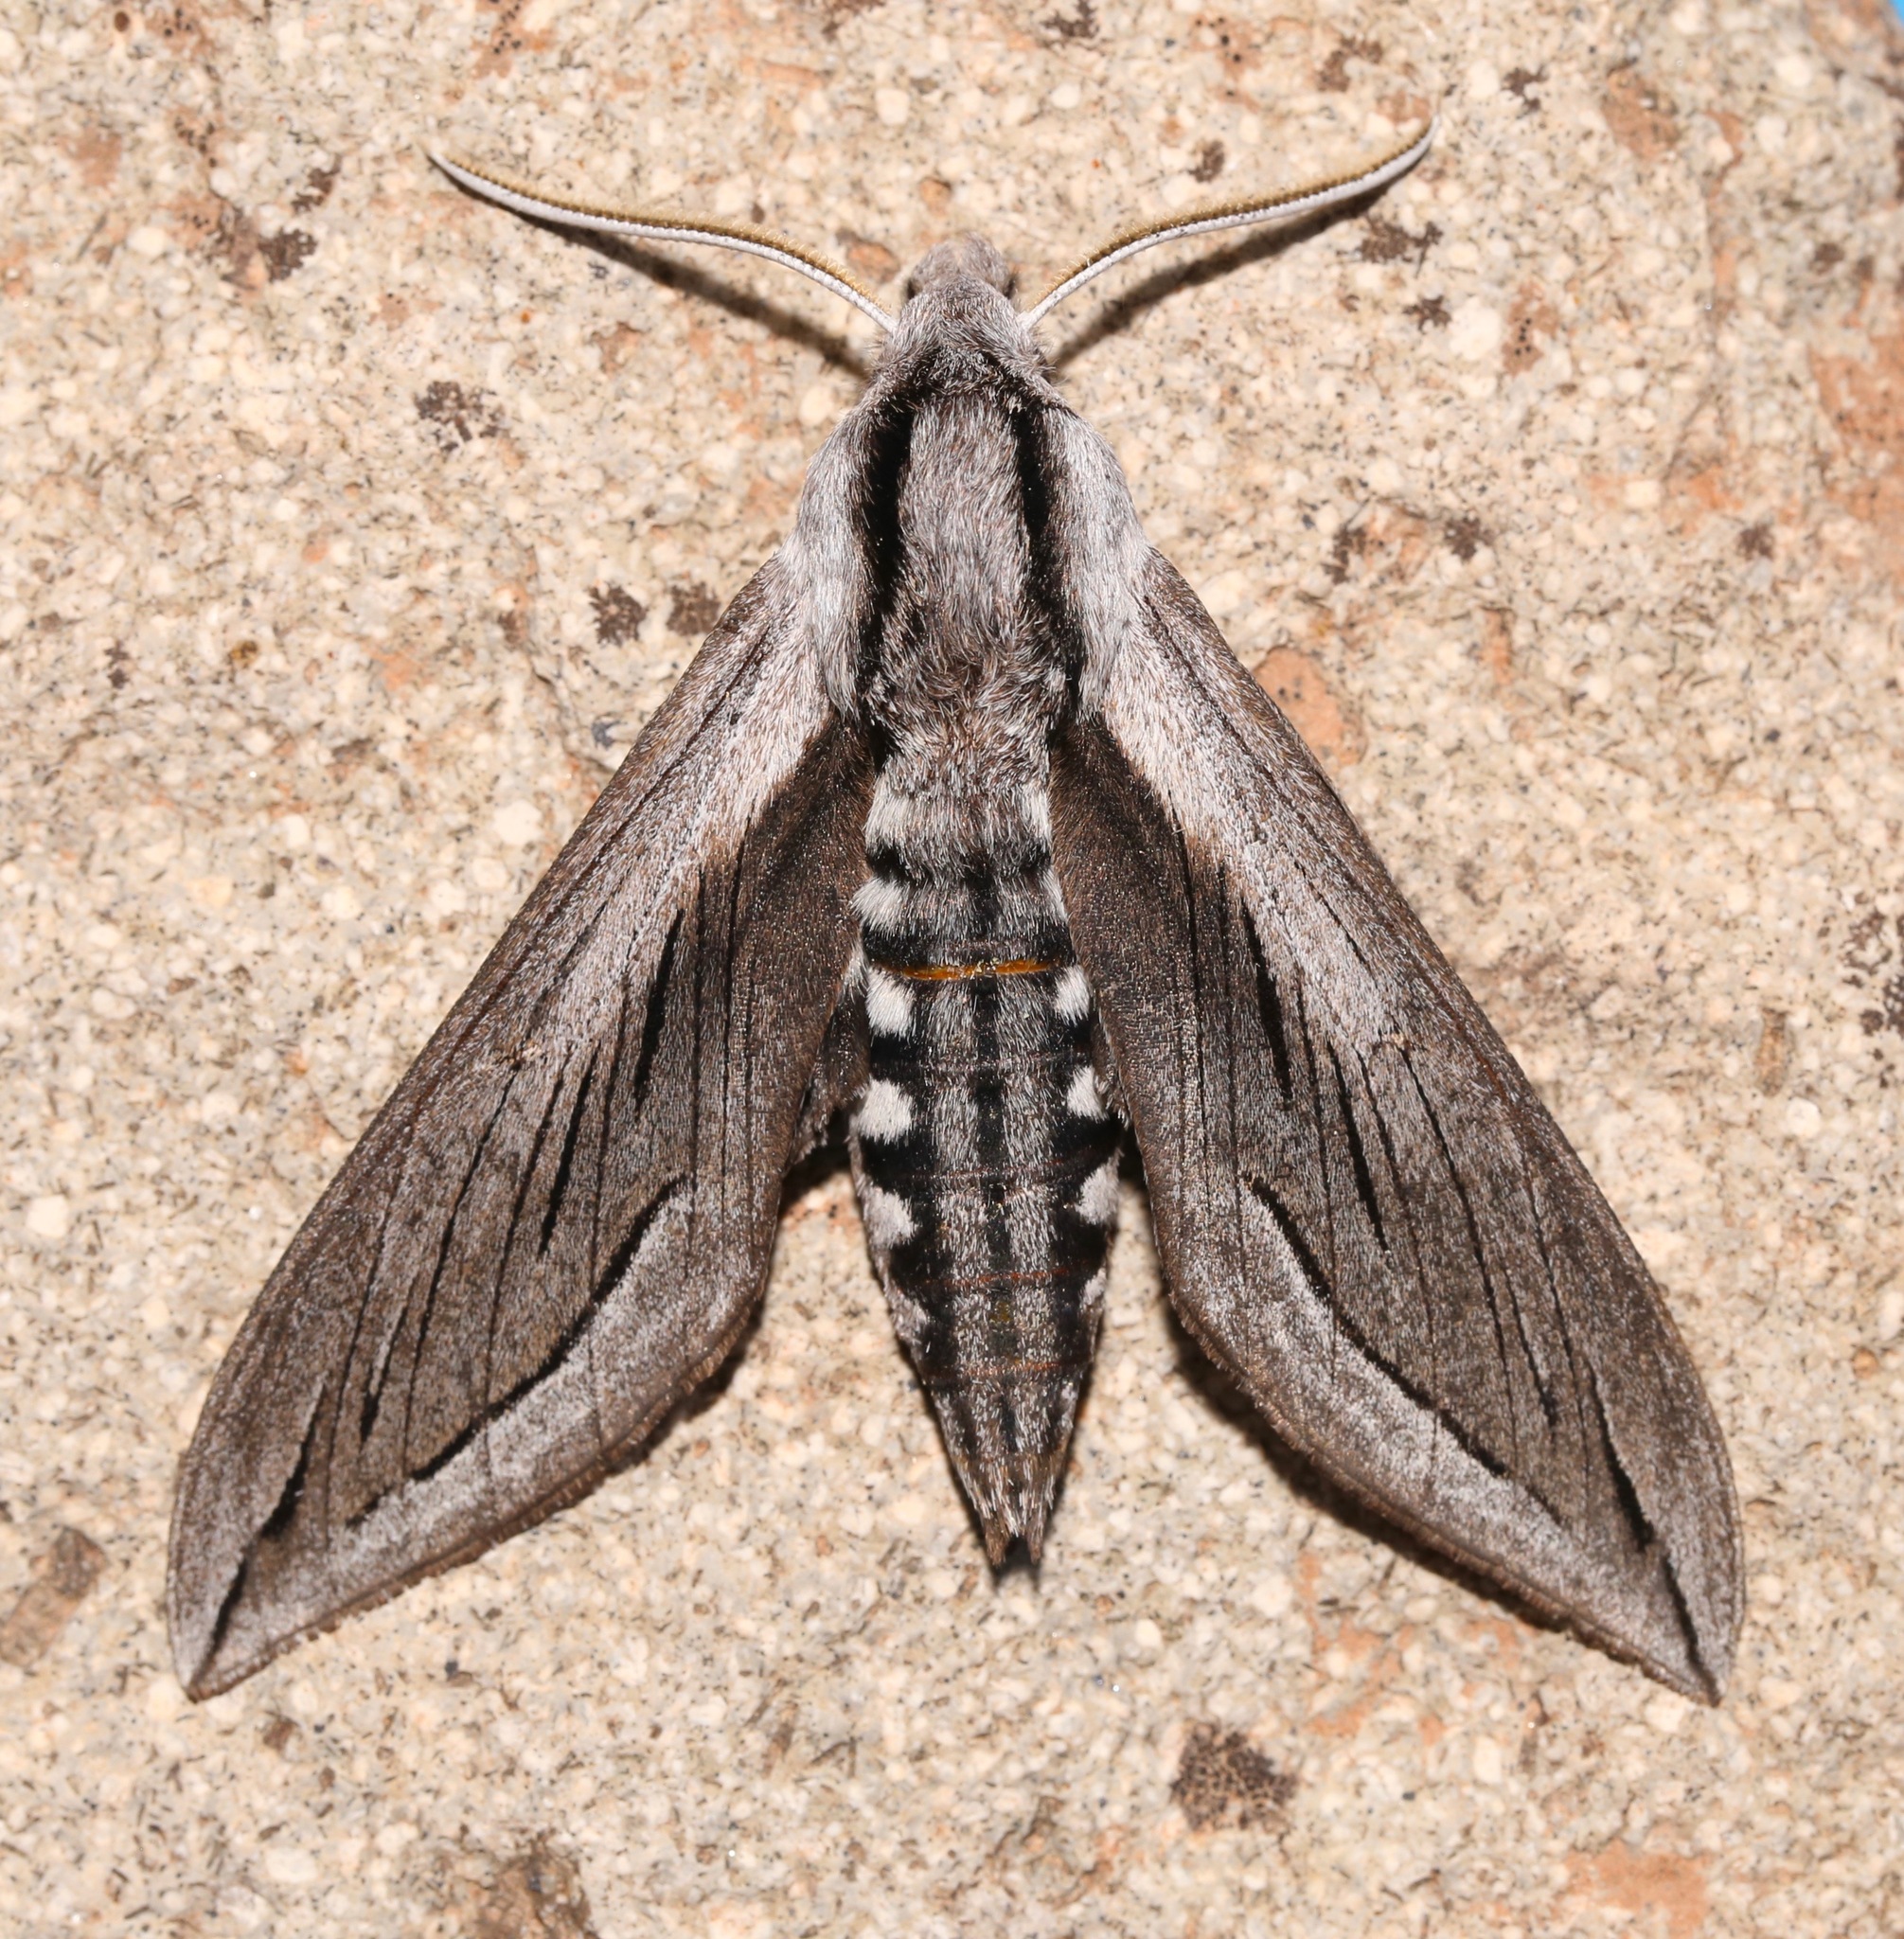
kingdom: Animalia
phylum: Arthropoda
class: Insecta
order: Lepidoptera
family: Sphingidae
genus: Sphinx
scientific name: Sphinx vashti
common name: Snowberry sphinx
